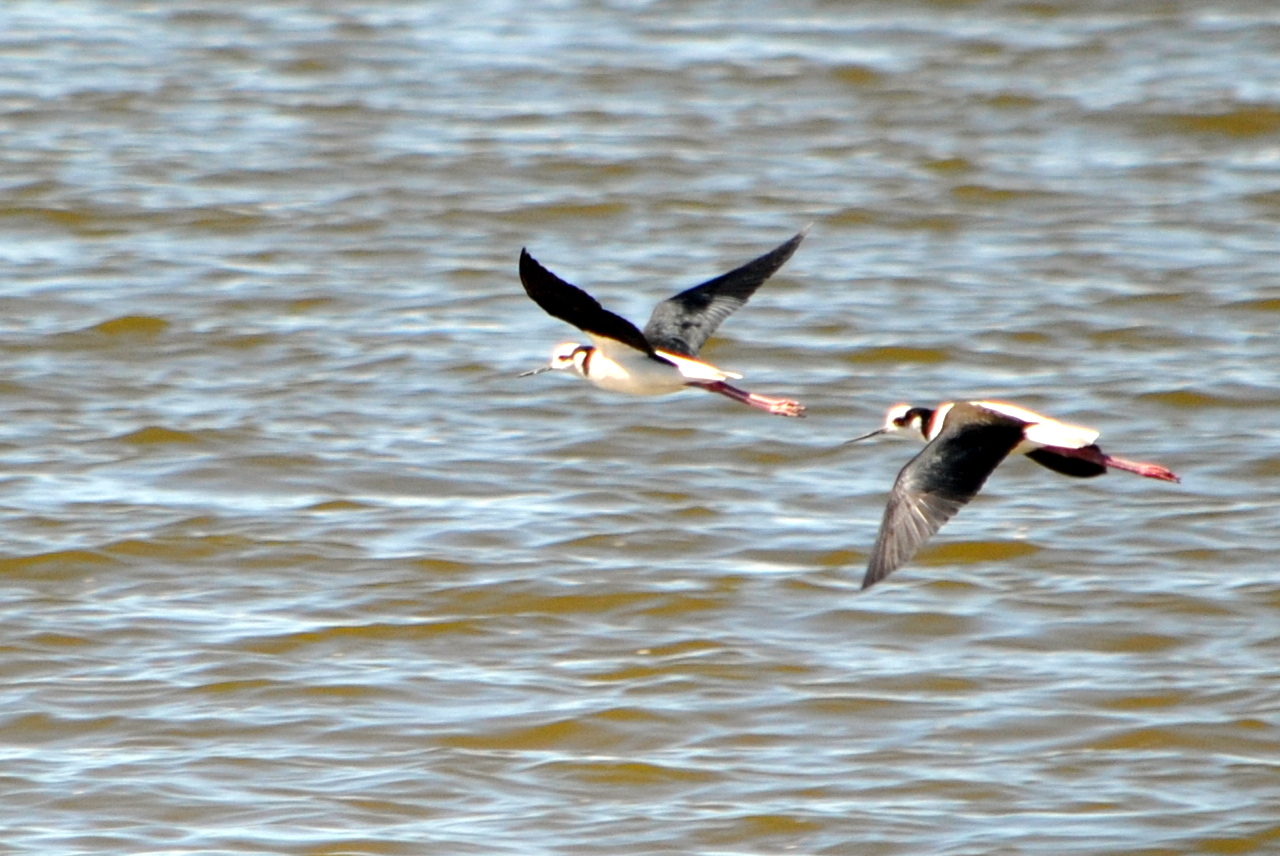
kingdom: Animalia
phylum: Chordata
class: Aves
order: Charadriiformes
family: Recurvirostridae
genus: Himantopus
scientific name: Himantopus mexicanus
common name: Black-necked stilt
